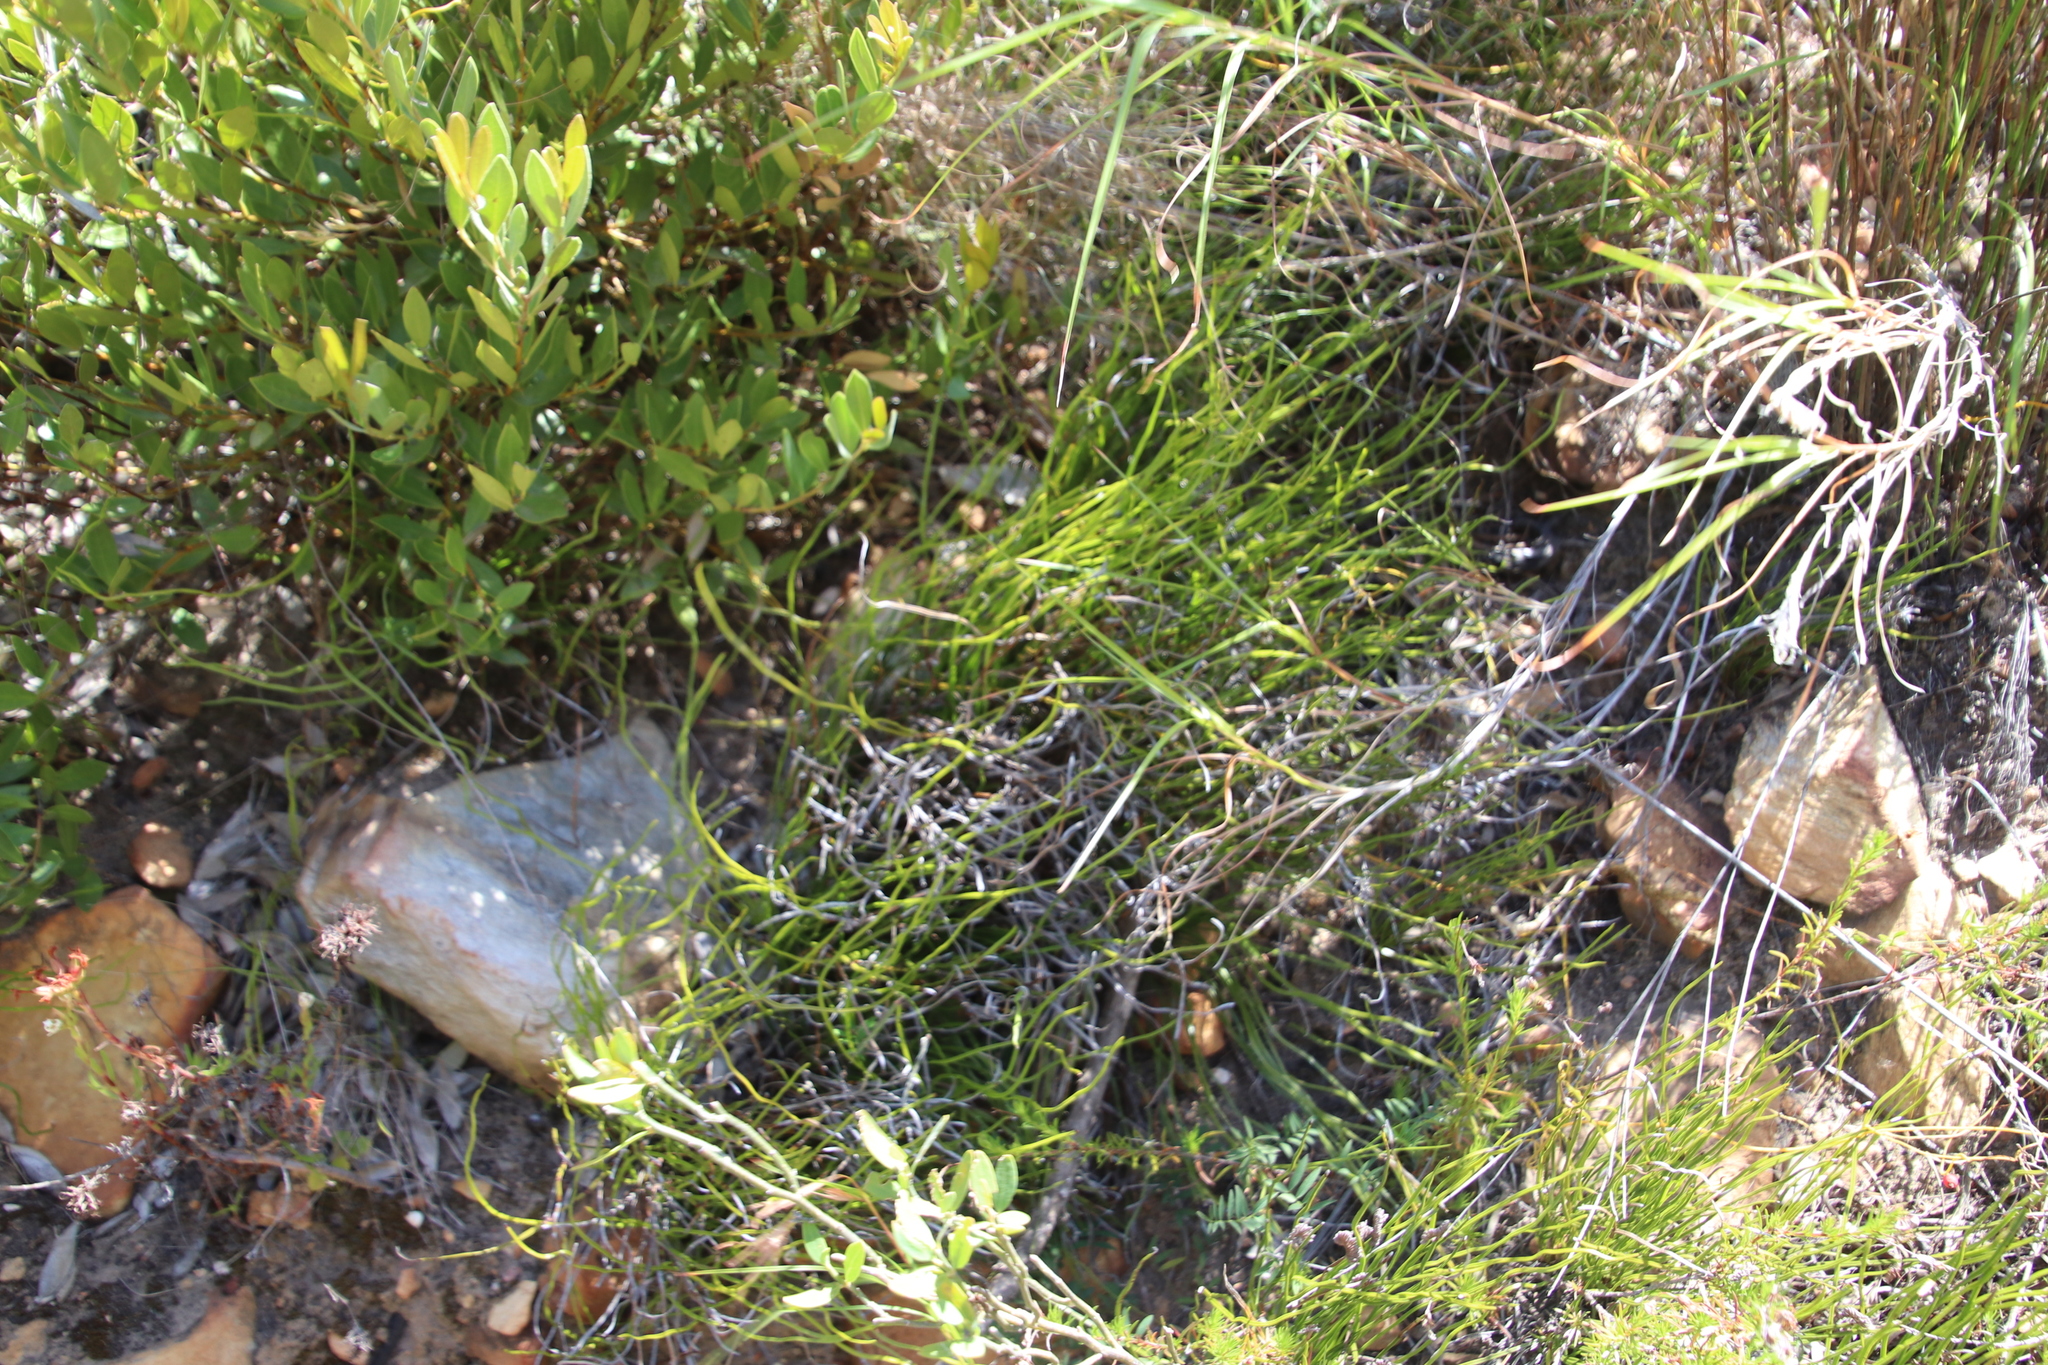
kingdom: Plantae
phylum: Tracheophyta
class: Polypodiopsida
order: Schizaeales
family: Schizaeaceae
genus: Schizaea
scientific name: Schizaea pectinata
